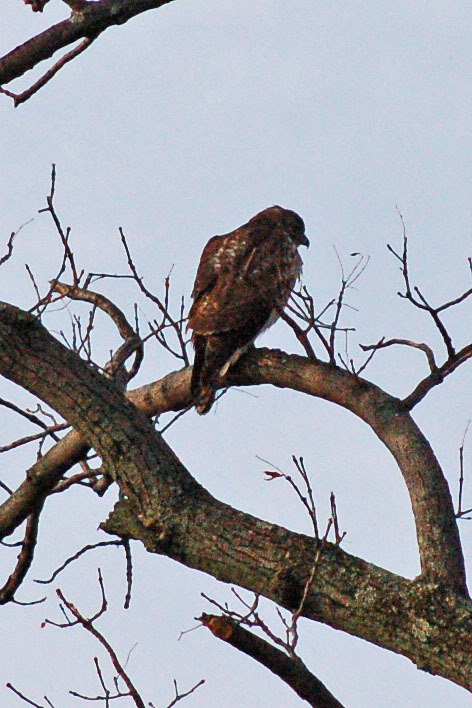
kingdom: Animalia
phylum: Chordata
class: Aves
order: Accipitriformes
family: Accipitridae
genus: Buteo
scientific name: Buteo jamaicensis
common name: Red-tailed hawk
